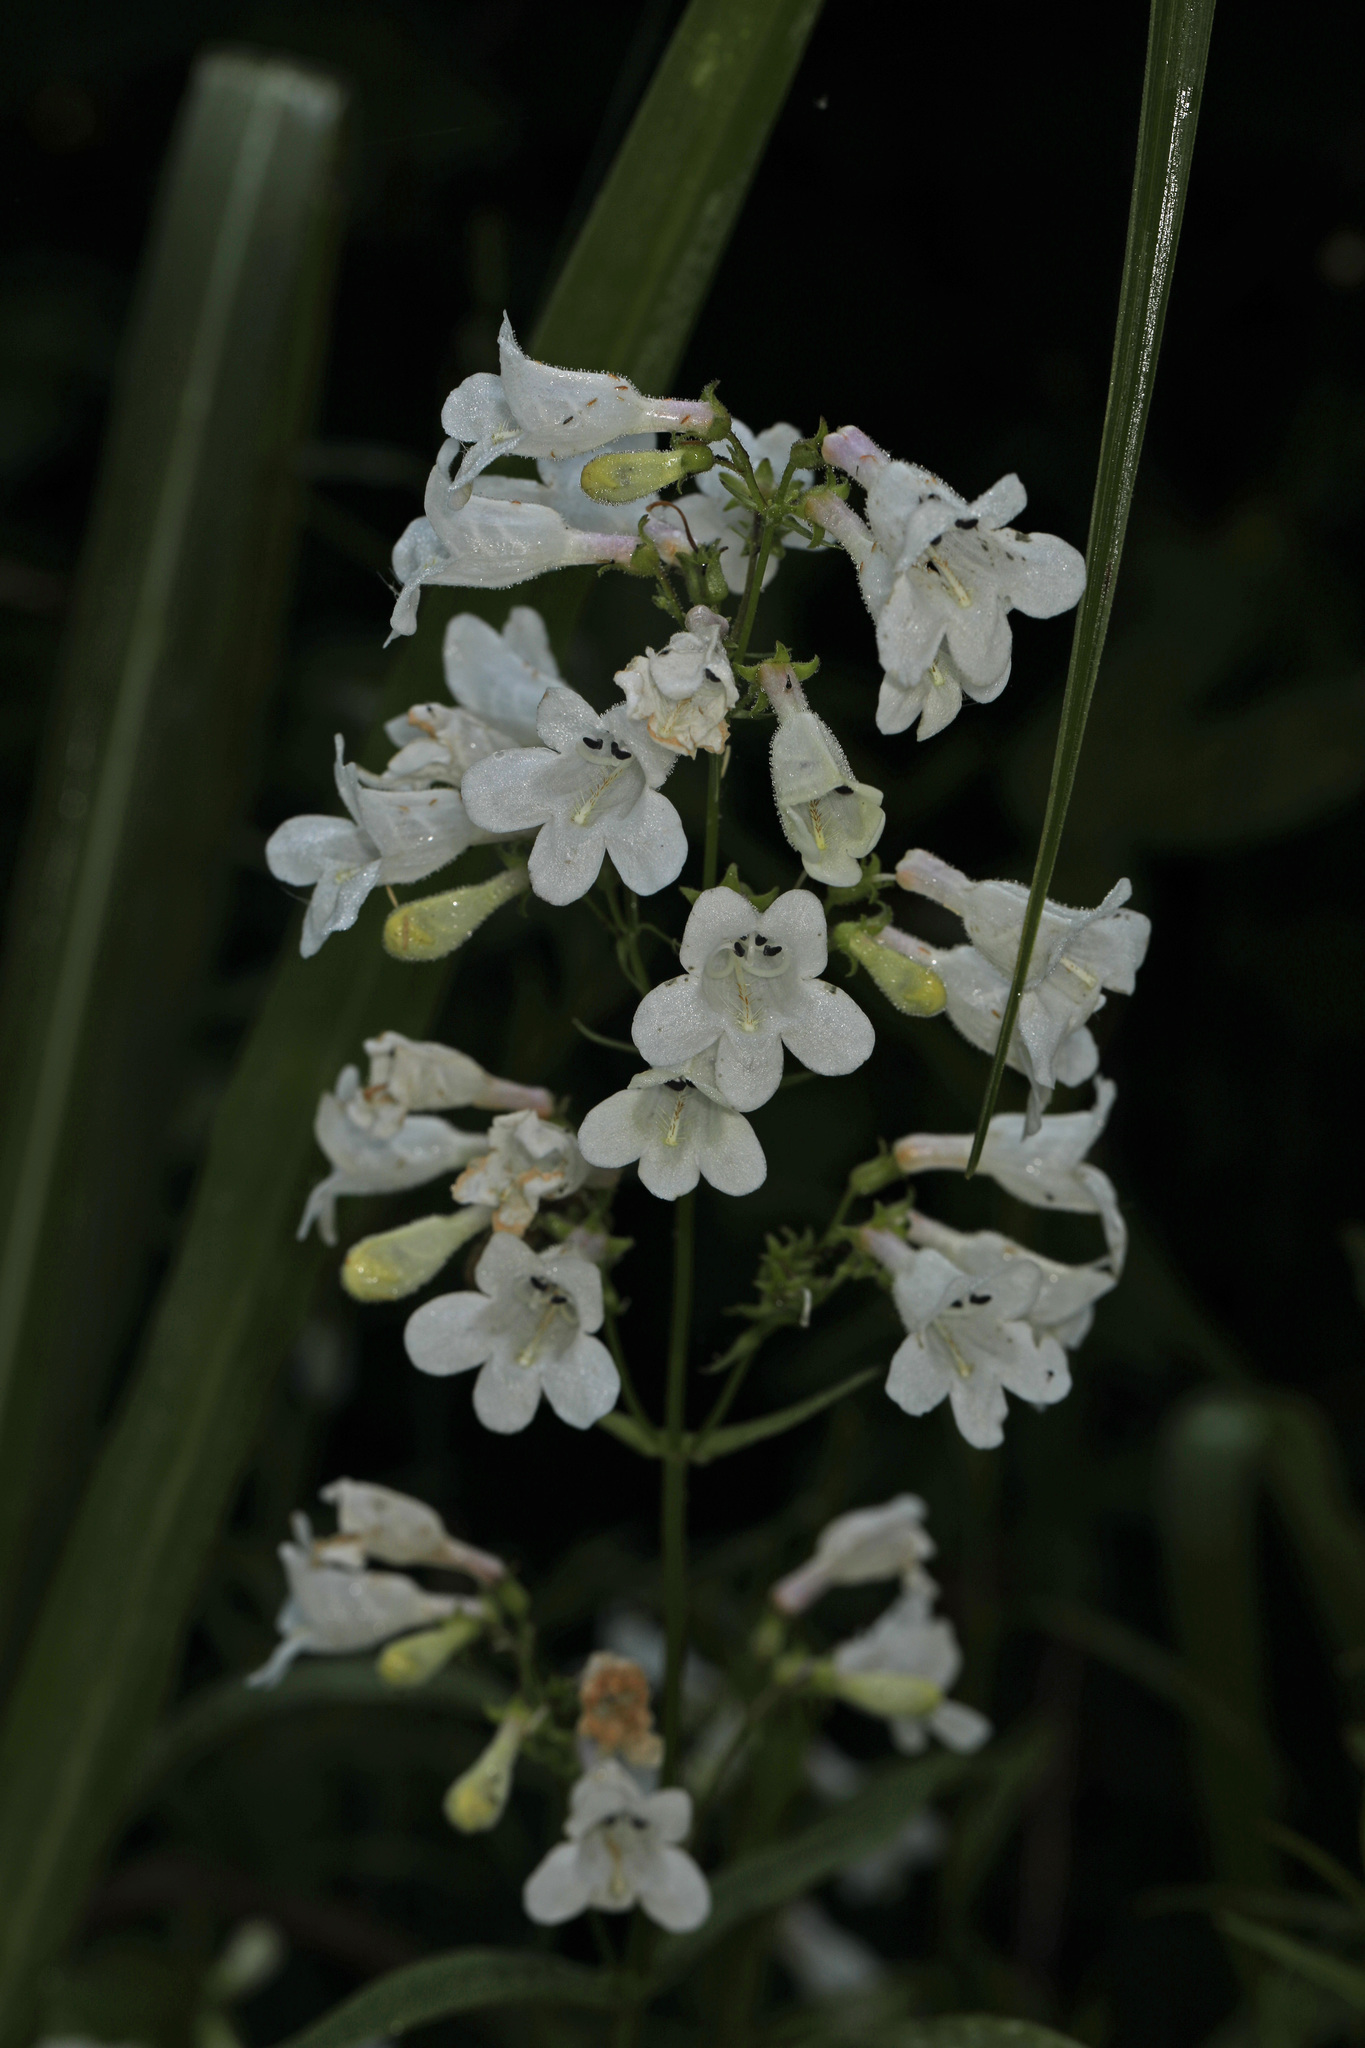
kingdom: Plantae
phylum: Tracheophyta
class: Magnoliopsida
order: Lamiales
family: Plantaginaceae
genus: Penstemon
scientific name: Penstemon digitalis
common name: Foxglove beardtongue
